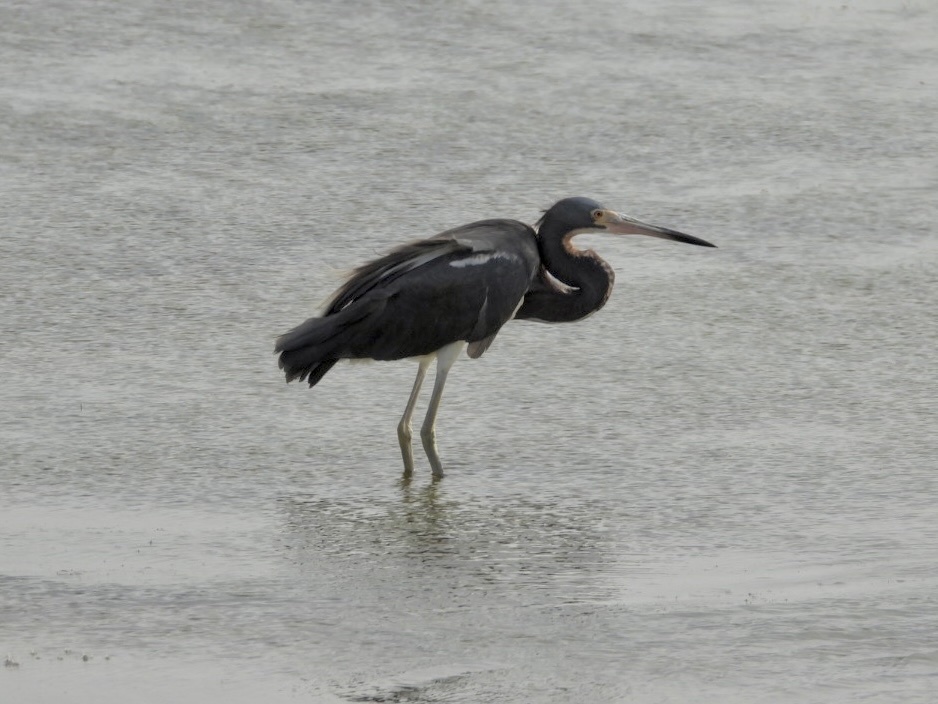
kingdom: Animalia
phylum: Chordata
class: Aves
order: Pelecaniformes
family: Ardeidae
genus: Egretta
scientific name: Egretta tricolor
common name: Tricolored heron
